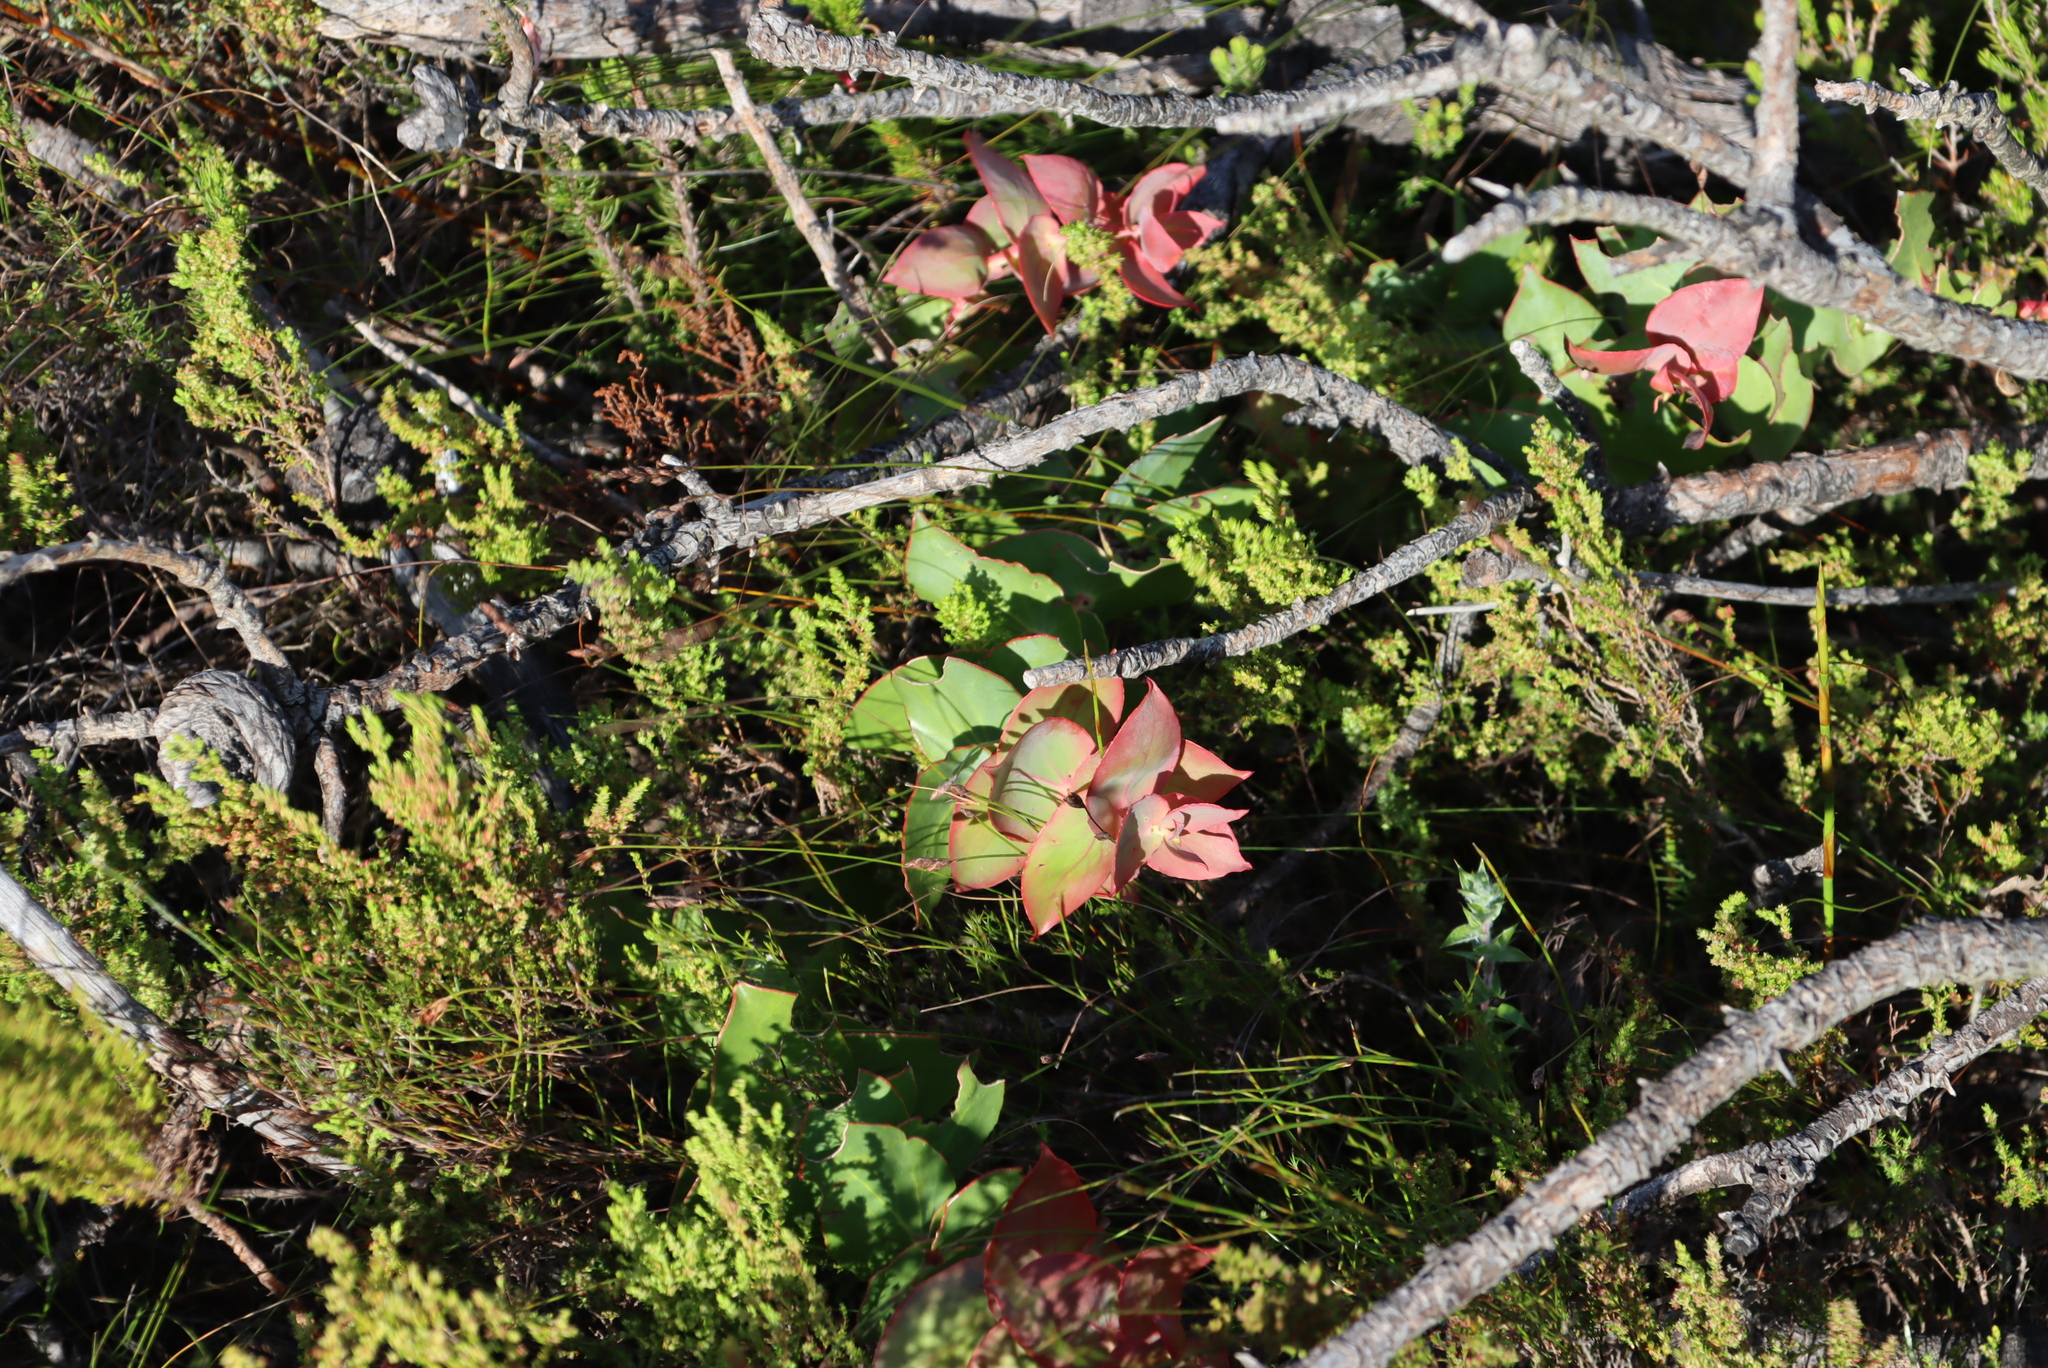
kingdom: Plantae
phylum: Tracheophyta
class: Magnoliopsida
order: Proteales
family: Proteaceae
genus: Protea
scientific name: Protea amplexicaulis
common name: Clasping-leaf sugarbush
